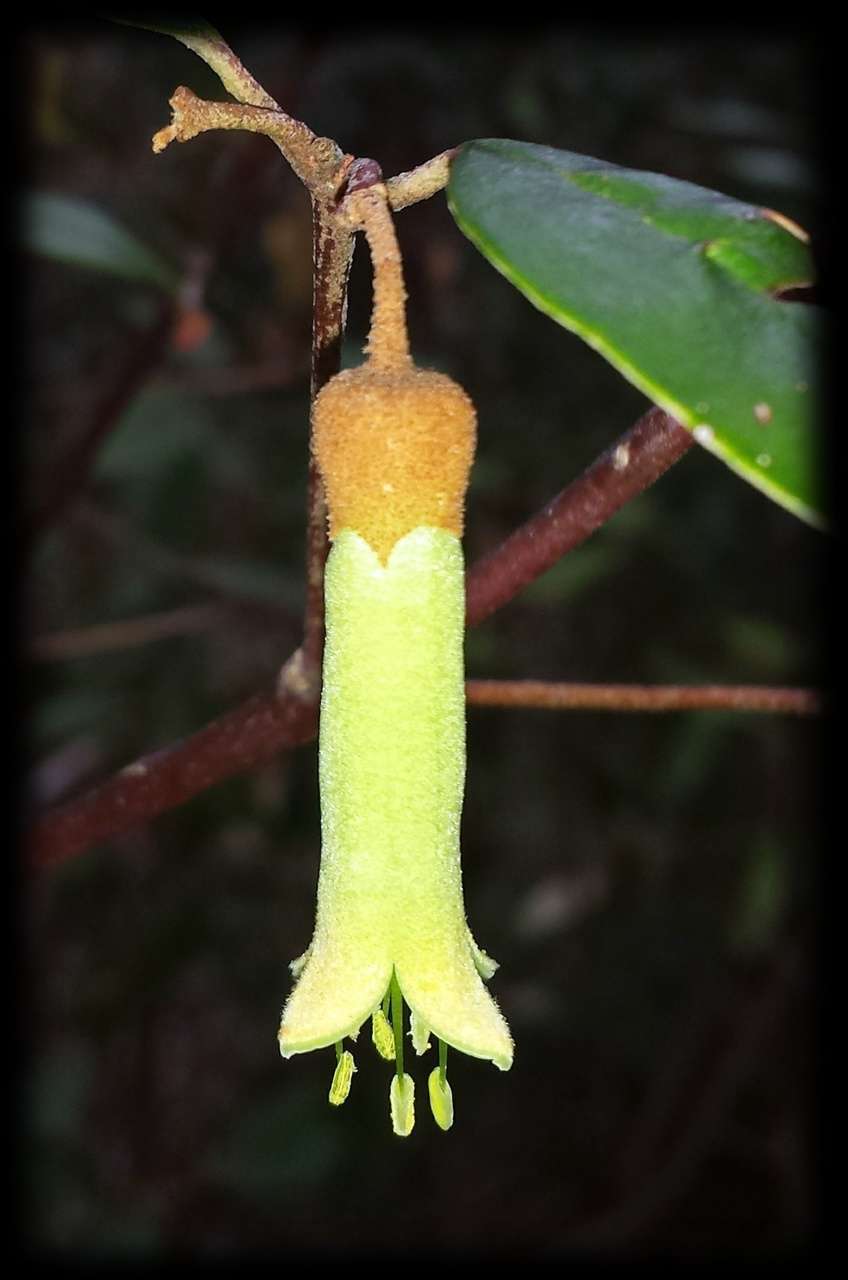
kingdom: Plantae
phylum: Tracheophyta
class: Magnoliopsida
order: Sapindales
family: Rutaceae
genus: Correa
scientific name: Correa lawrenciana
